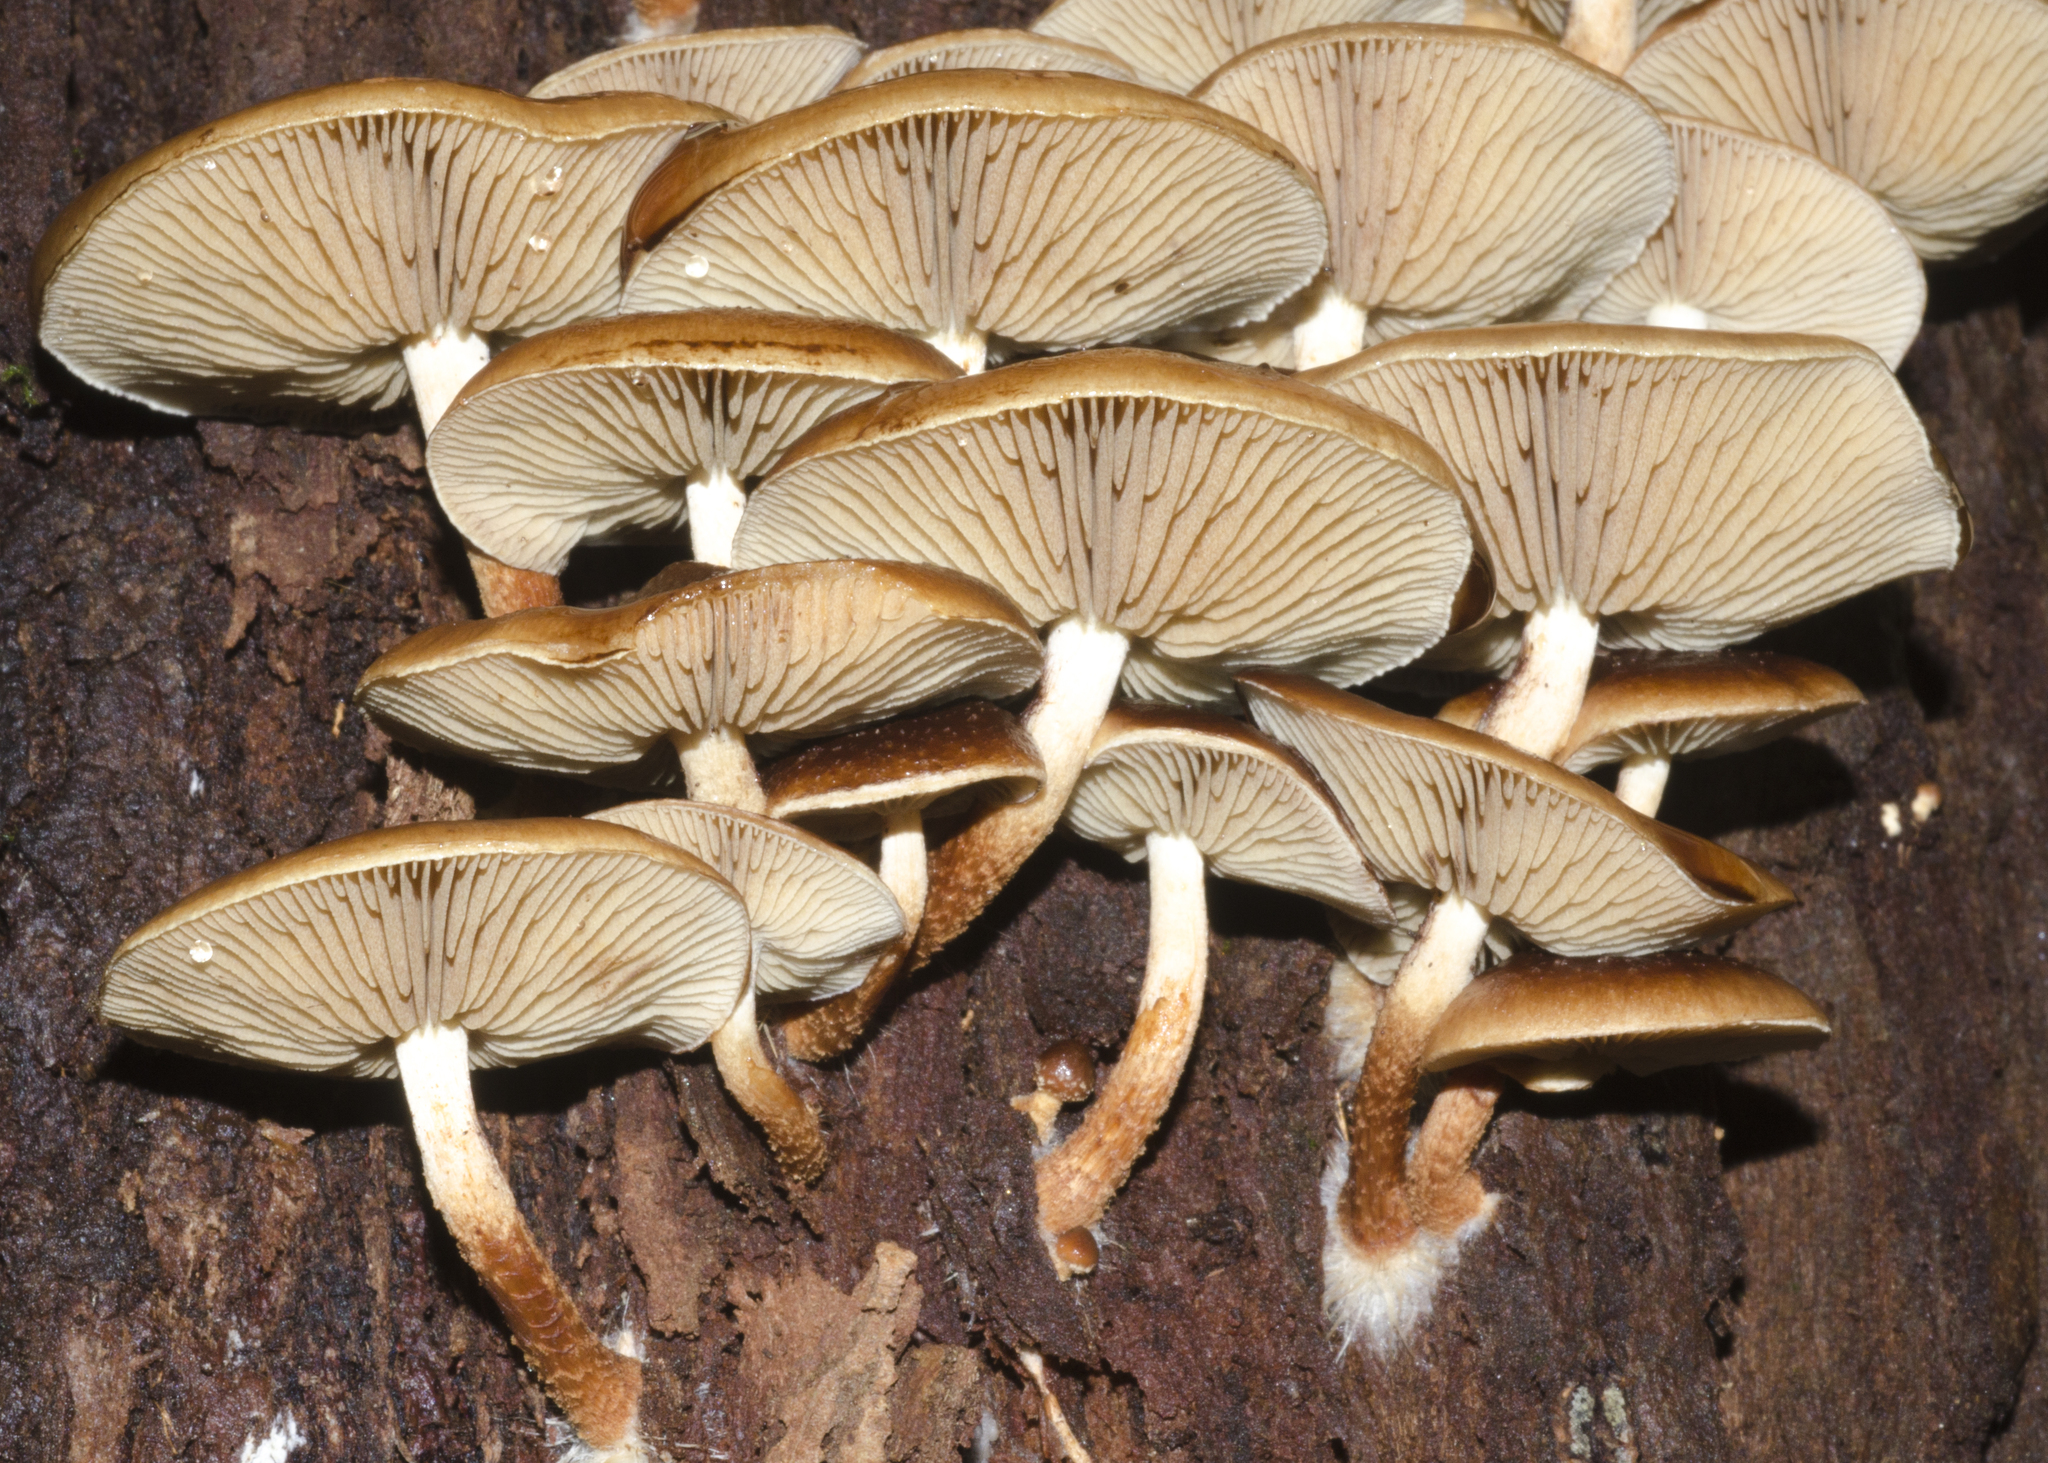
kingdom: Fungi
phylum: Basidiomycota
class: Agaricomycetes
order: Agaricales
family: Strophariaceae
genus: Pholiota
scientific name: Pholiota multicingulata
